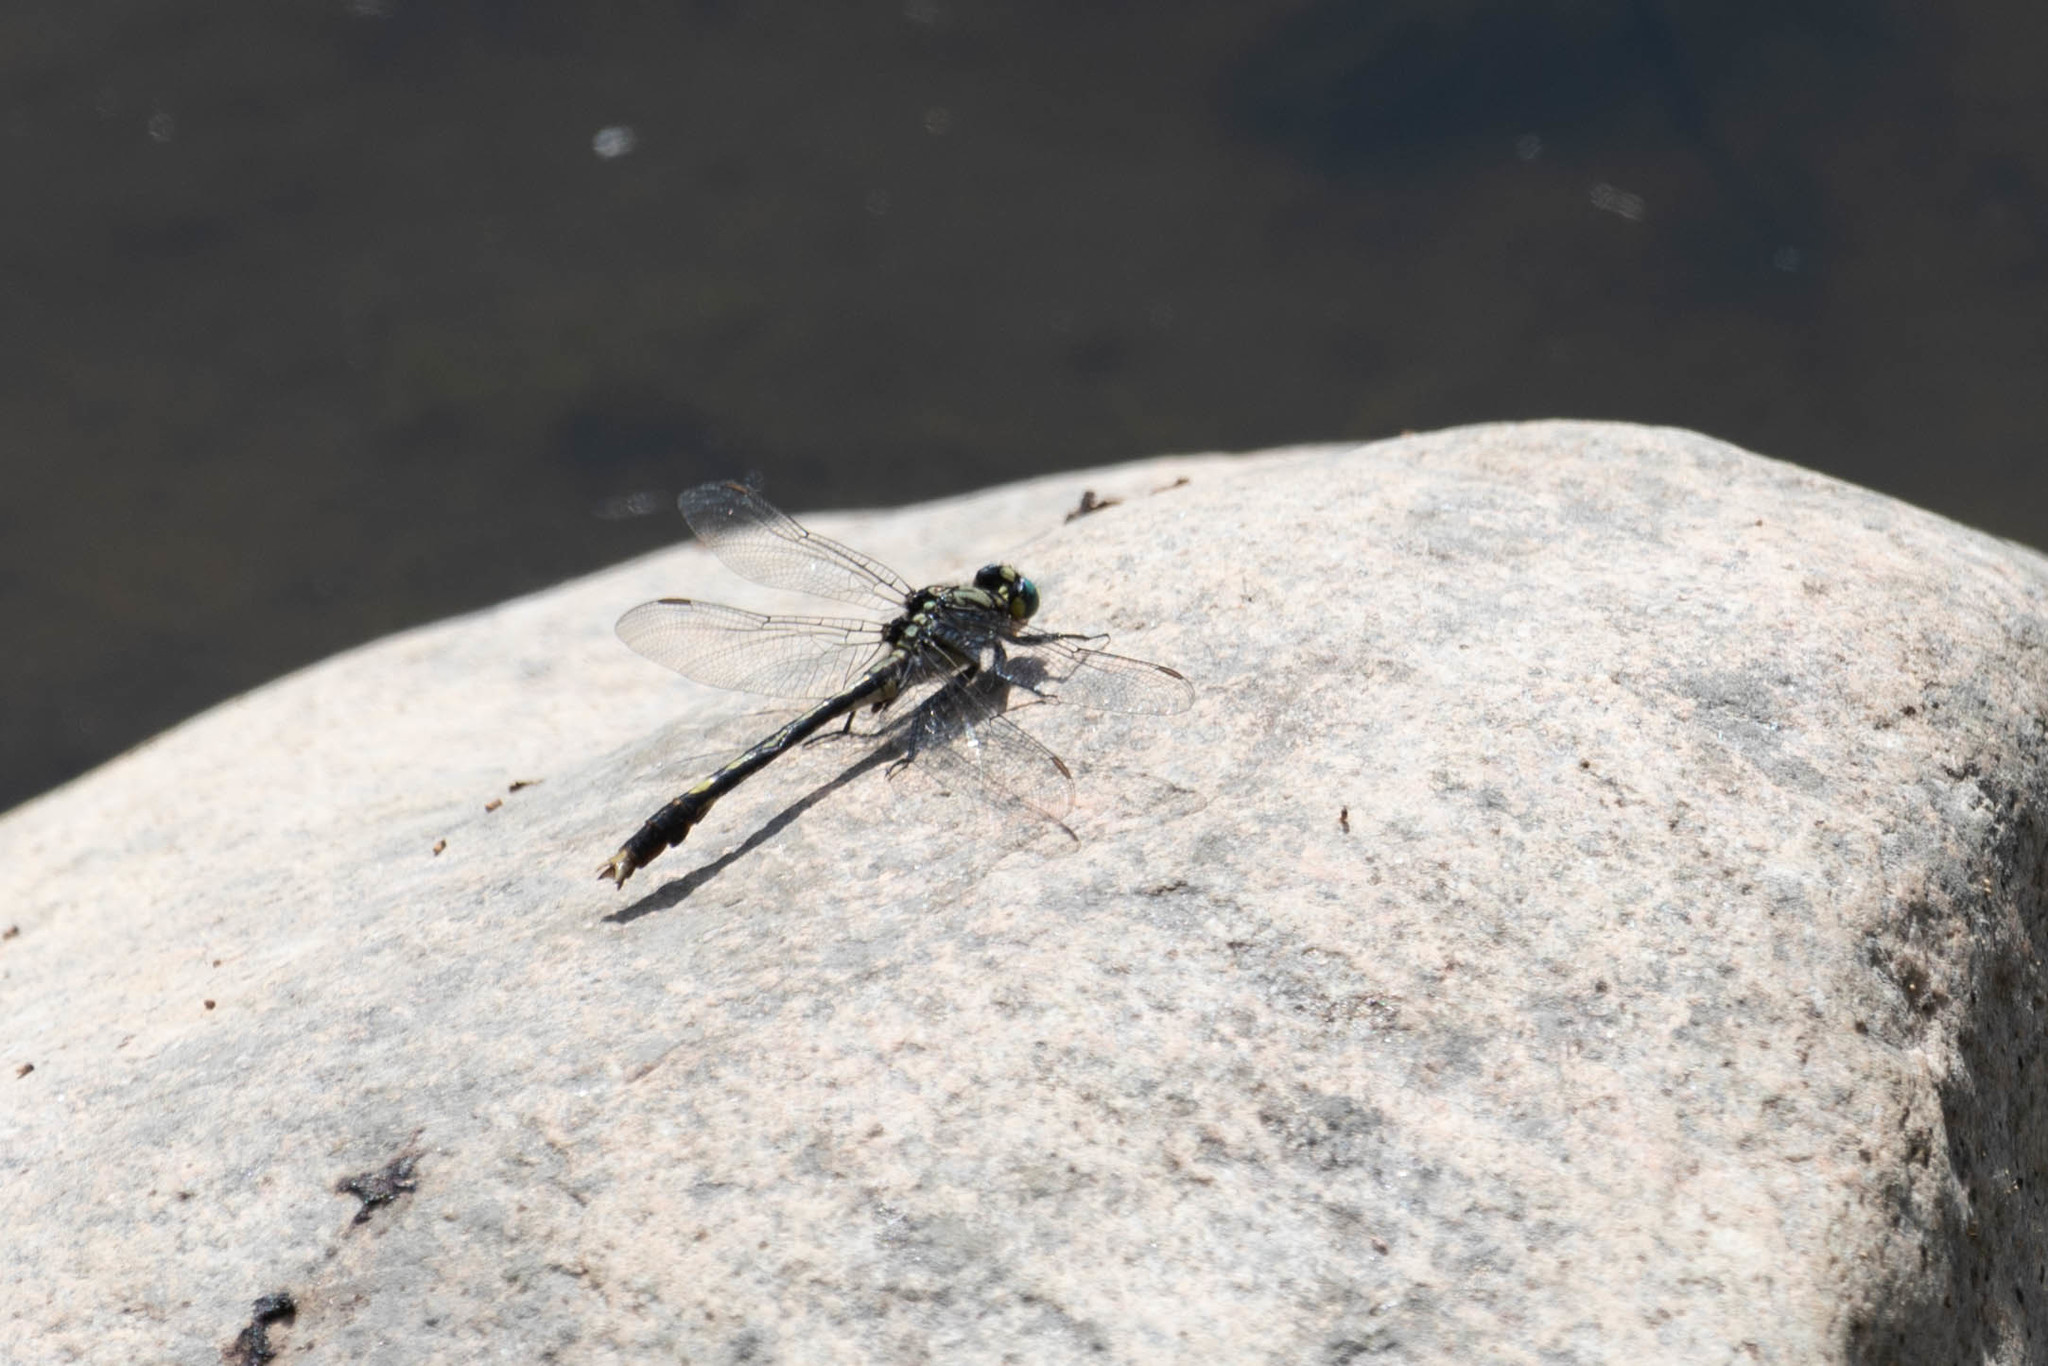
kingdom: Animalia
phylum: Arthropoda
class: Insecta
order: Odonata
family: Gomphidae
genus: Arigomphus
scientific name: Arigomphus villosipes
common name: Unicorn clubtail
